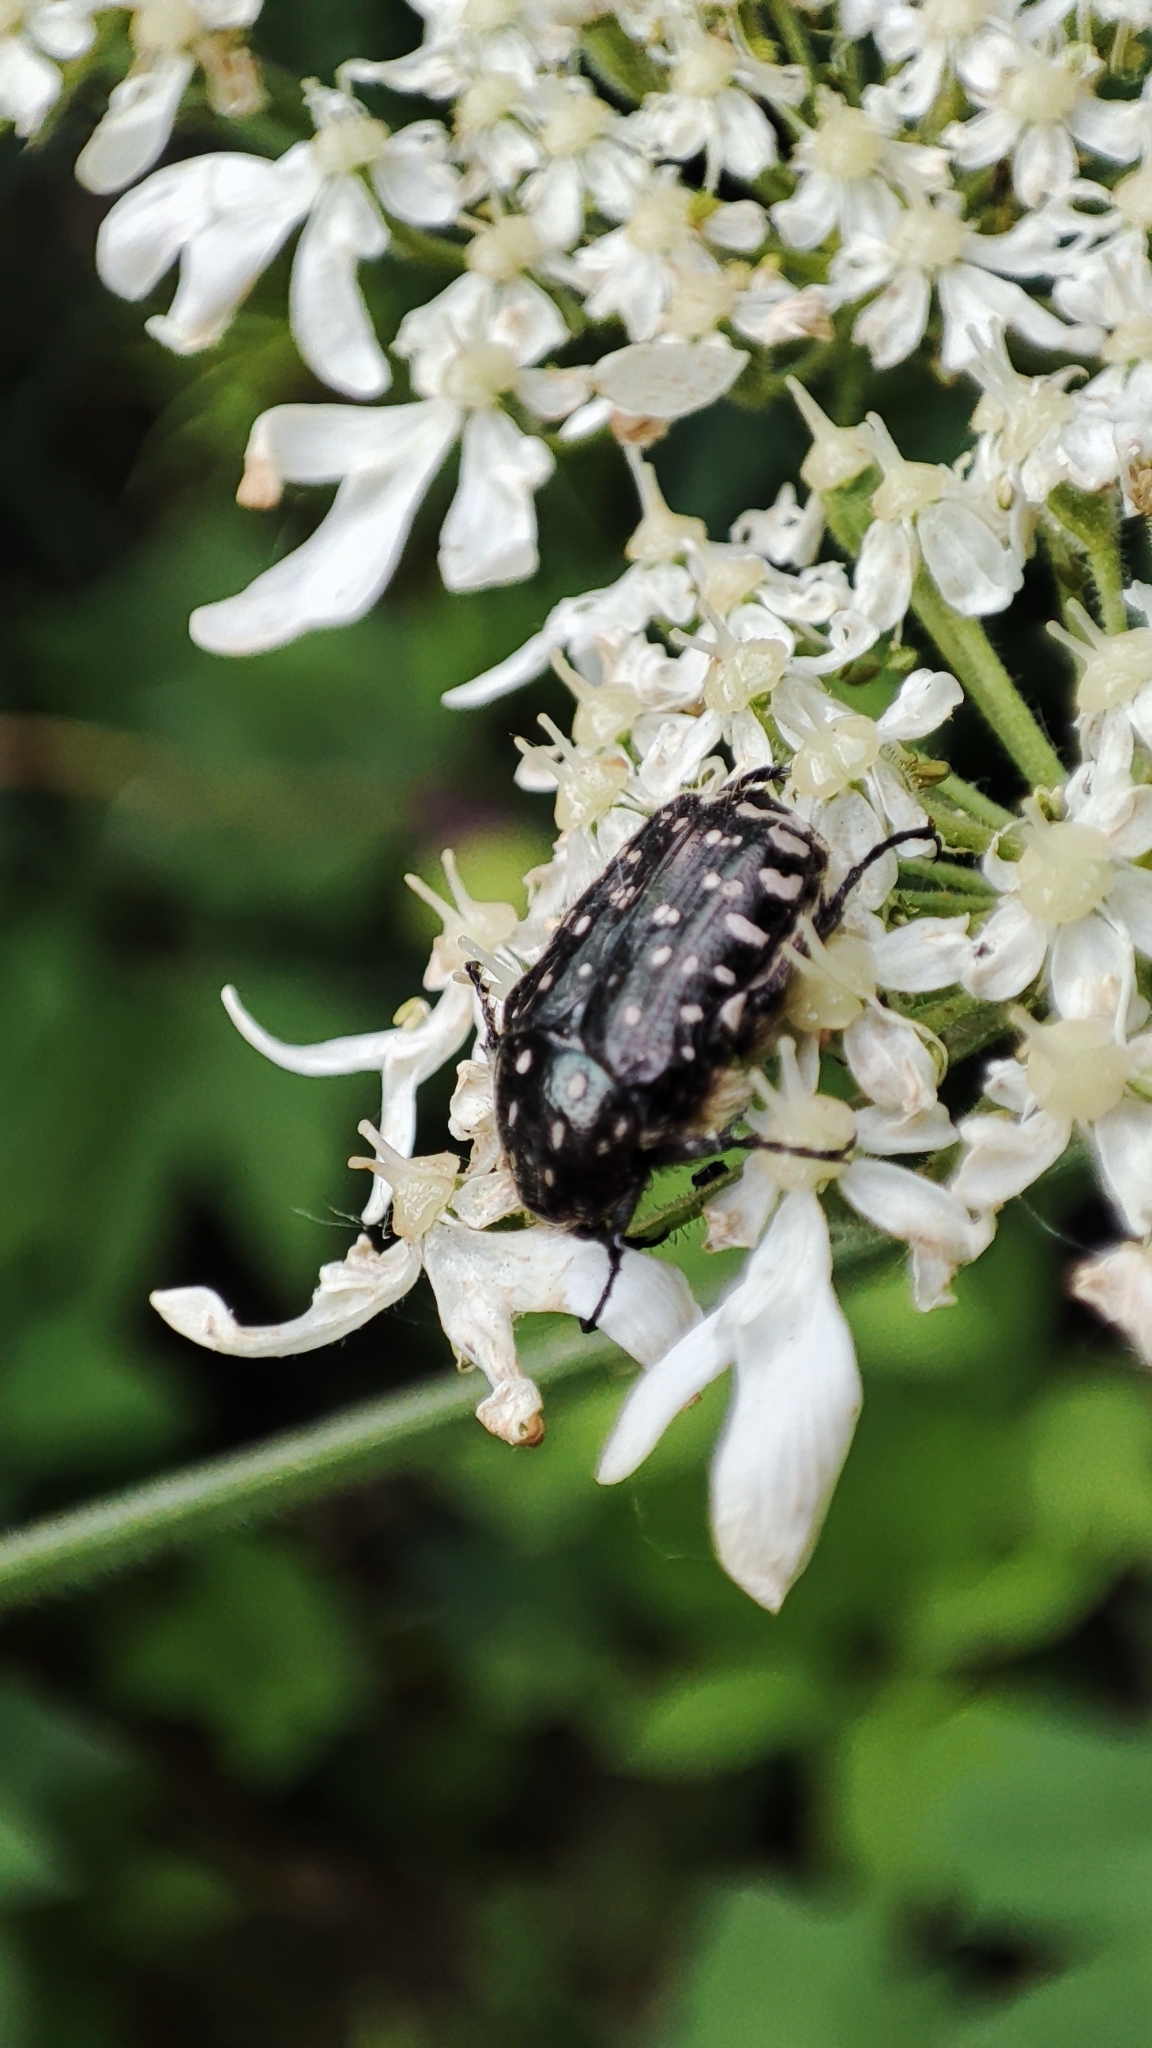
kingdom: Animalia
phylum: Arthropoda
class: Insecta
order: Coleoptera
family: Scarabaeidae
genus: Oxythyrea
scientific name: Oxythyrea funesta
